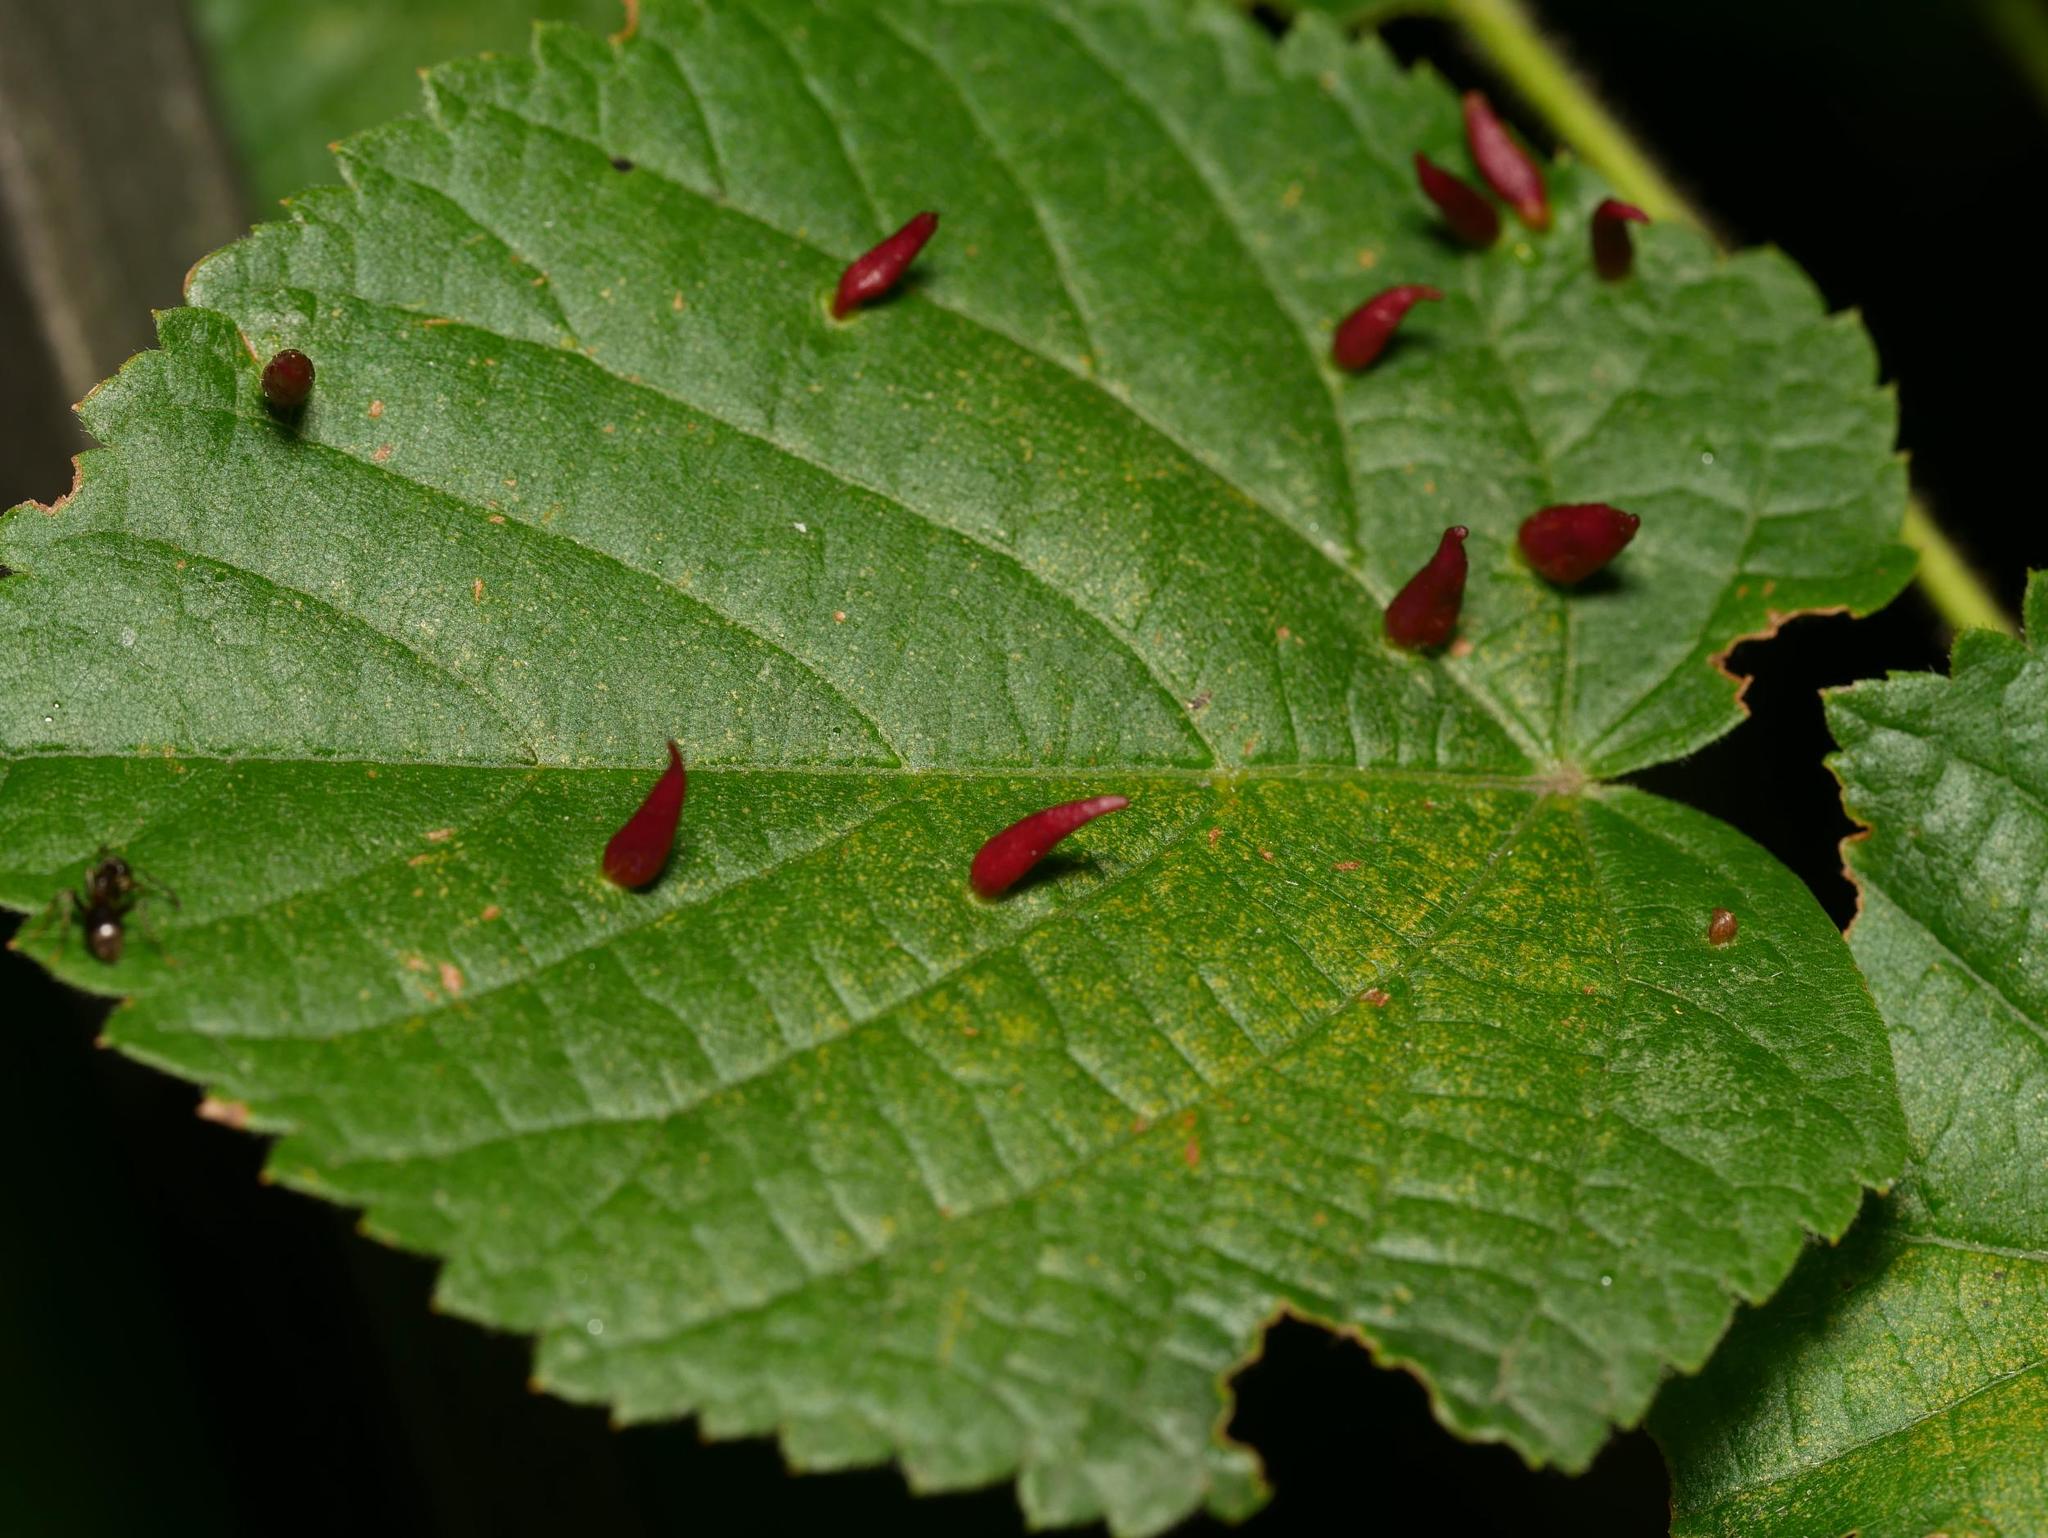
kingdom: Animalia
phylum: Arthropoda
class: Arachnida
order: Trombidiformes
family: Eriophyidae
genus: Eriophyes
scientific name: Eriophyes tiliae
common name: Red nail gall mite
